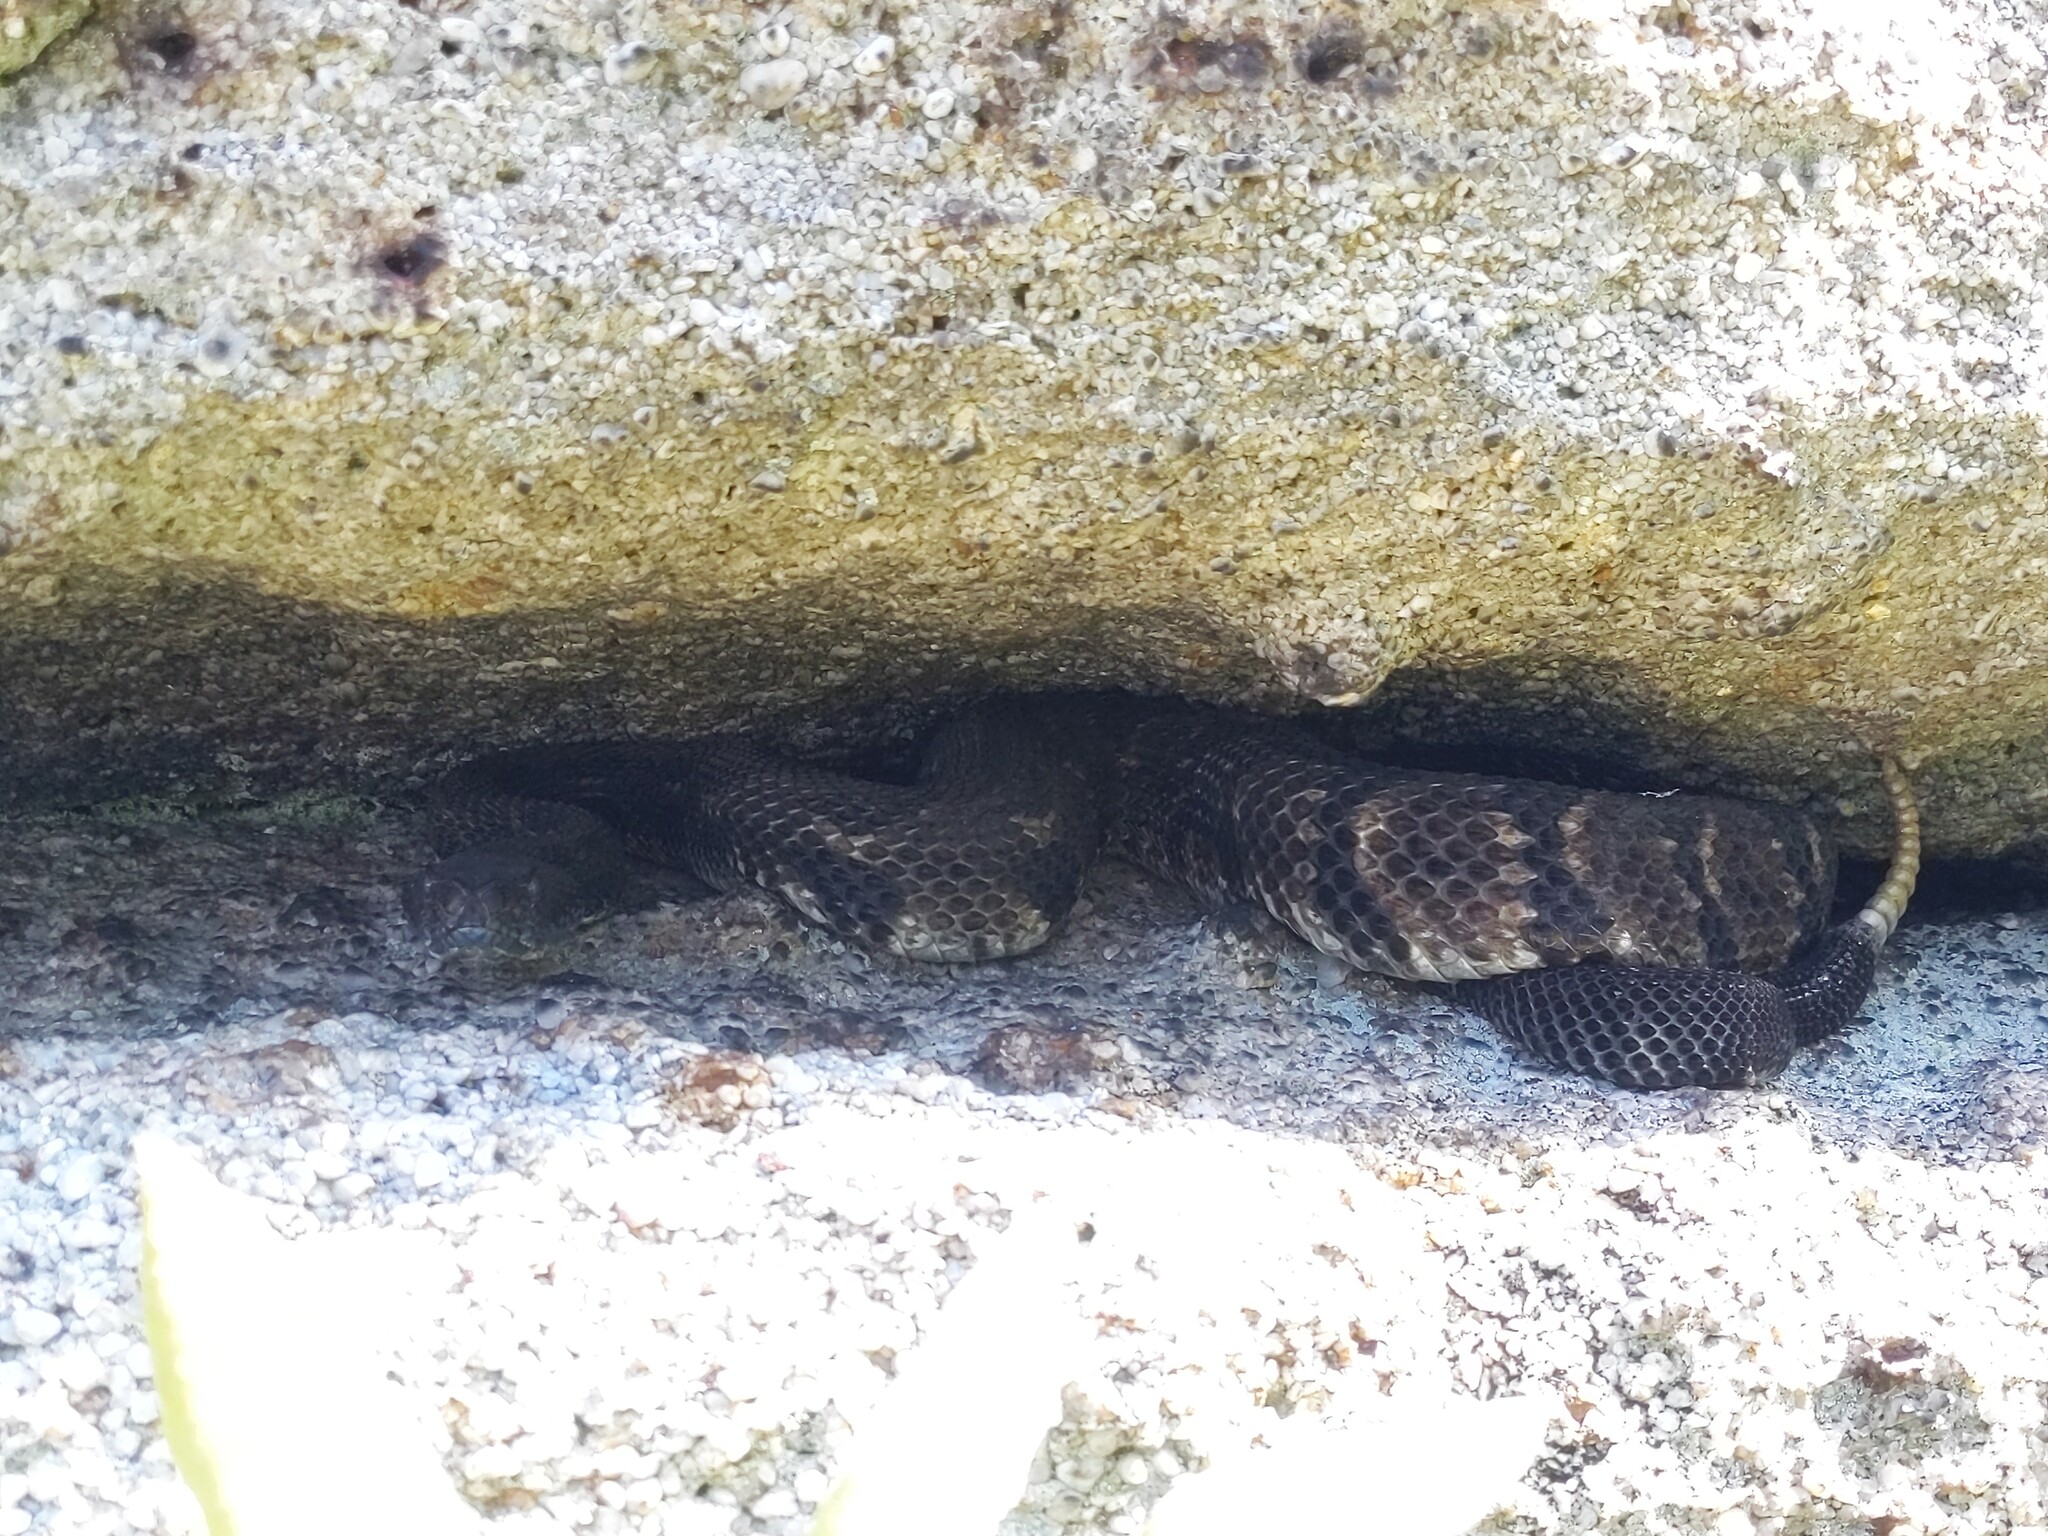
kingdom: Animalia
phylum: Chordata
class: Squamata
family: Viperidae
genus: Crotalus
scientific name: Crotalus horridus
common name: Timber rattlesnake
